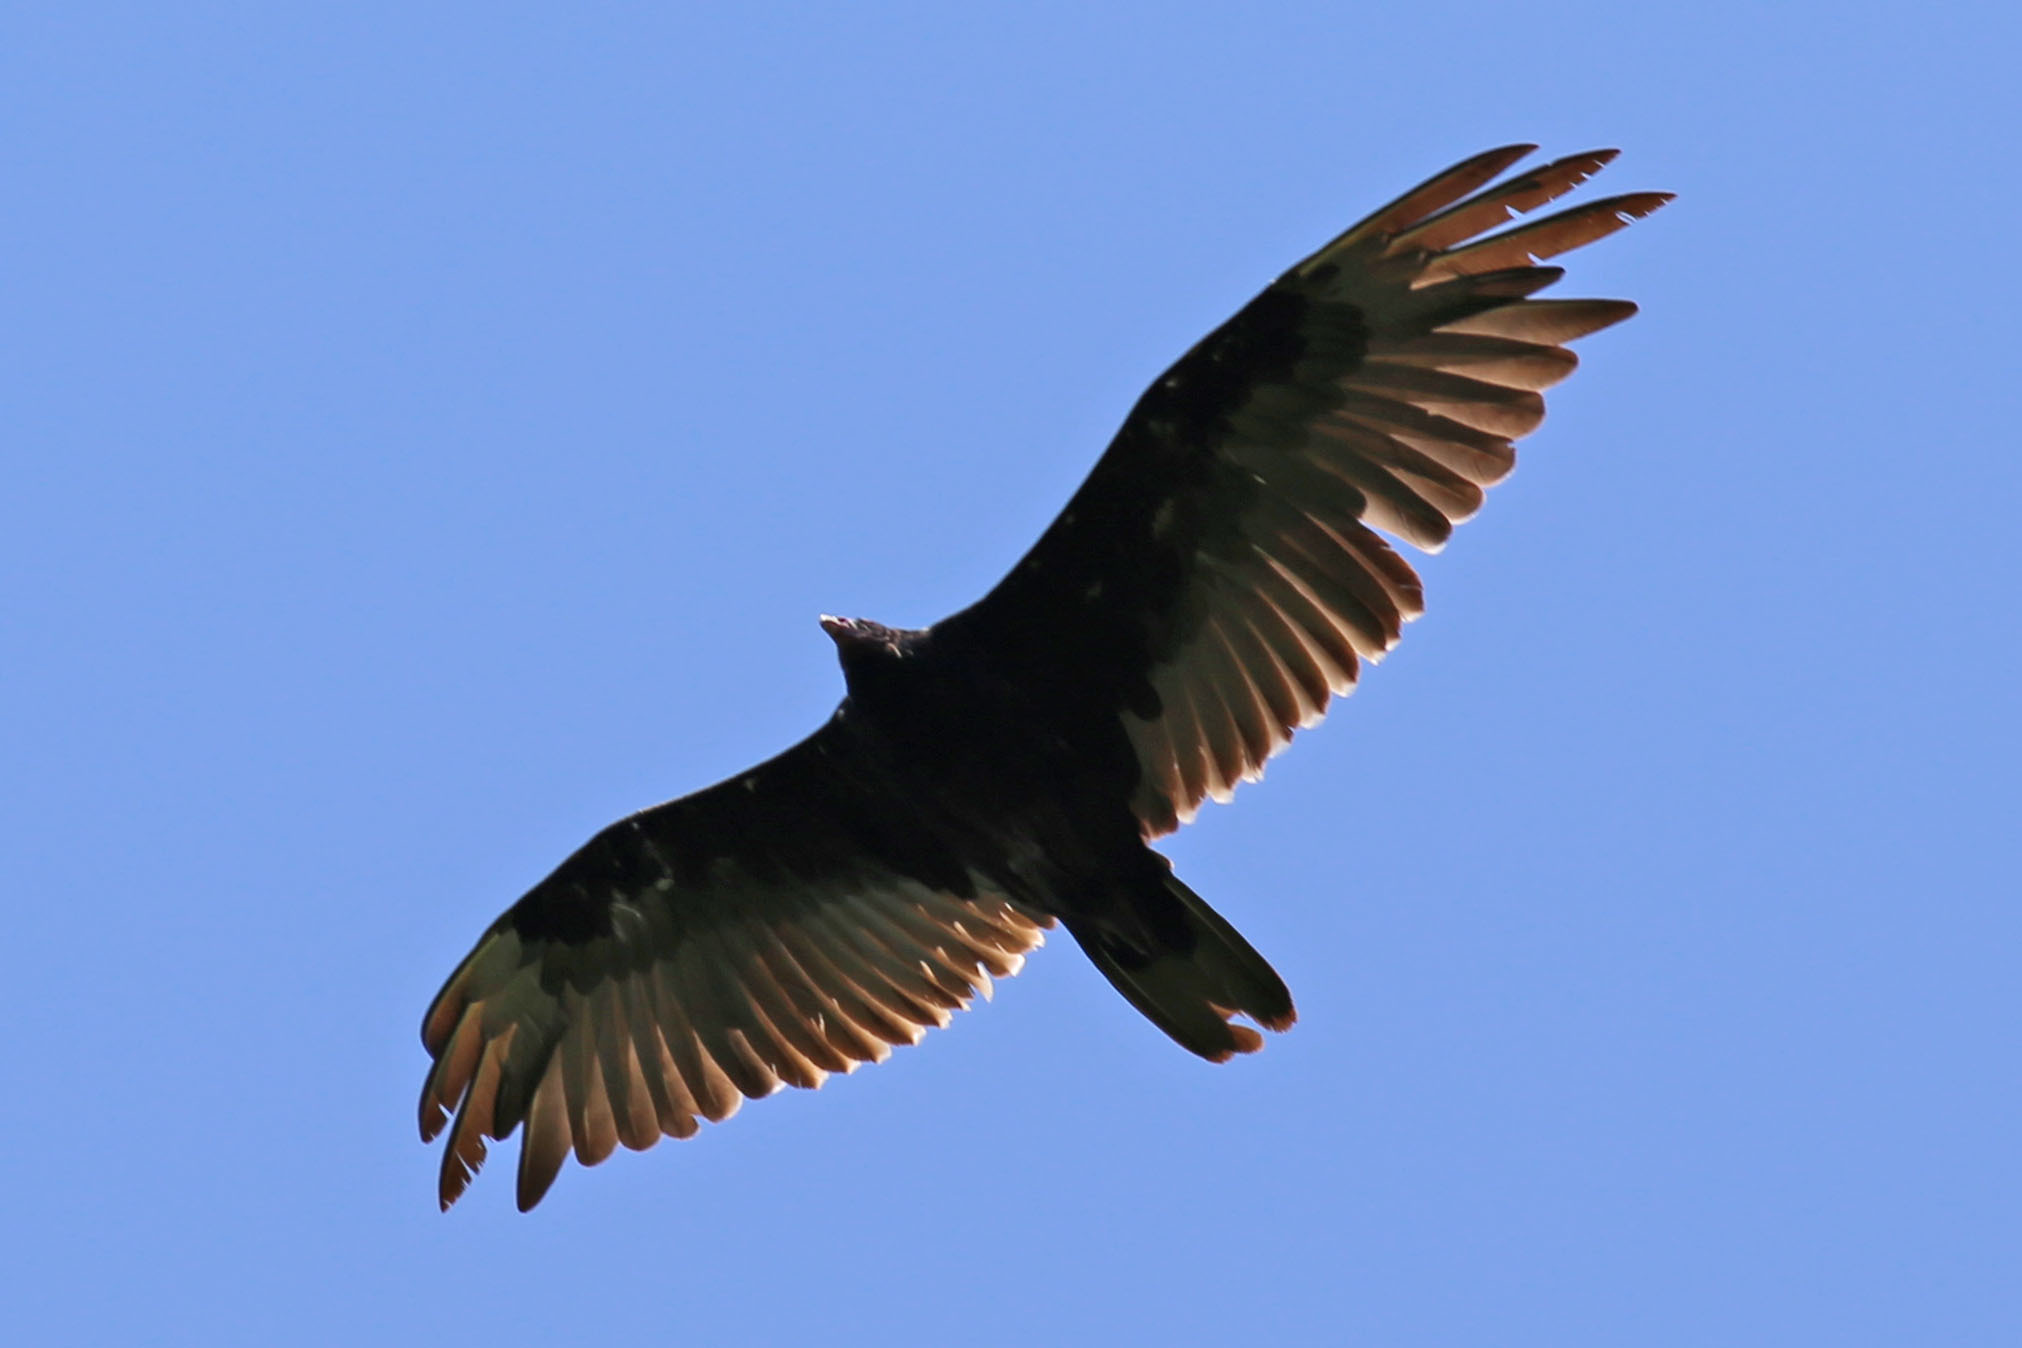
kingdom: Animalia
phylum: Chordata
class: Aves
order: Accipitriformes
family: Cathartidae
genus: Cathartes
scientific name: Cathartes aura
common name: Turkey vulture
